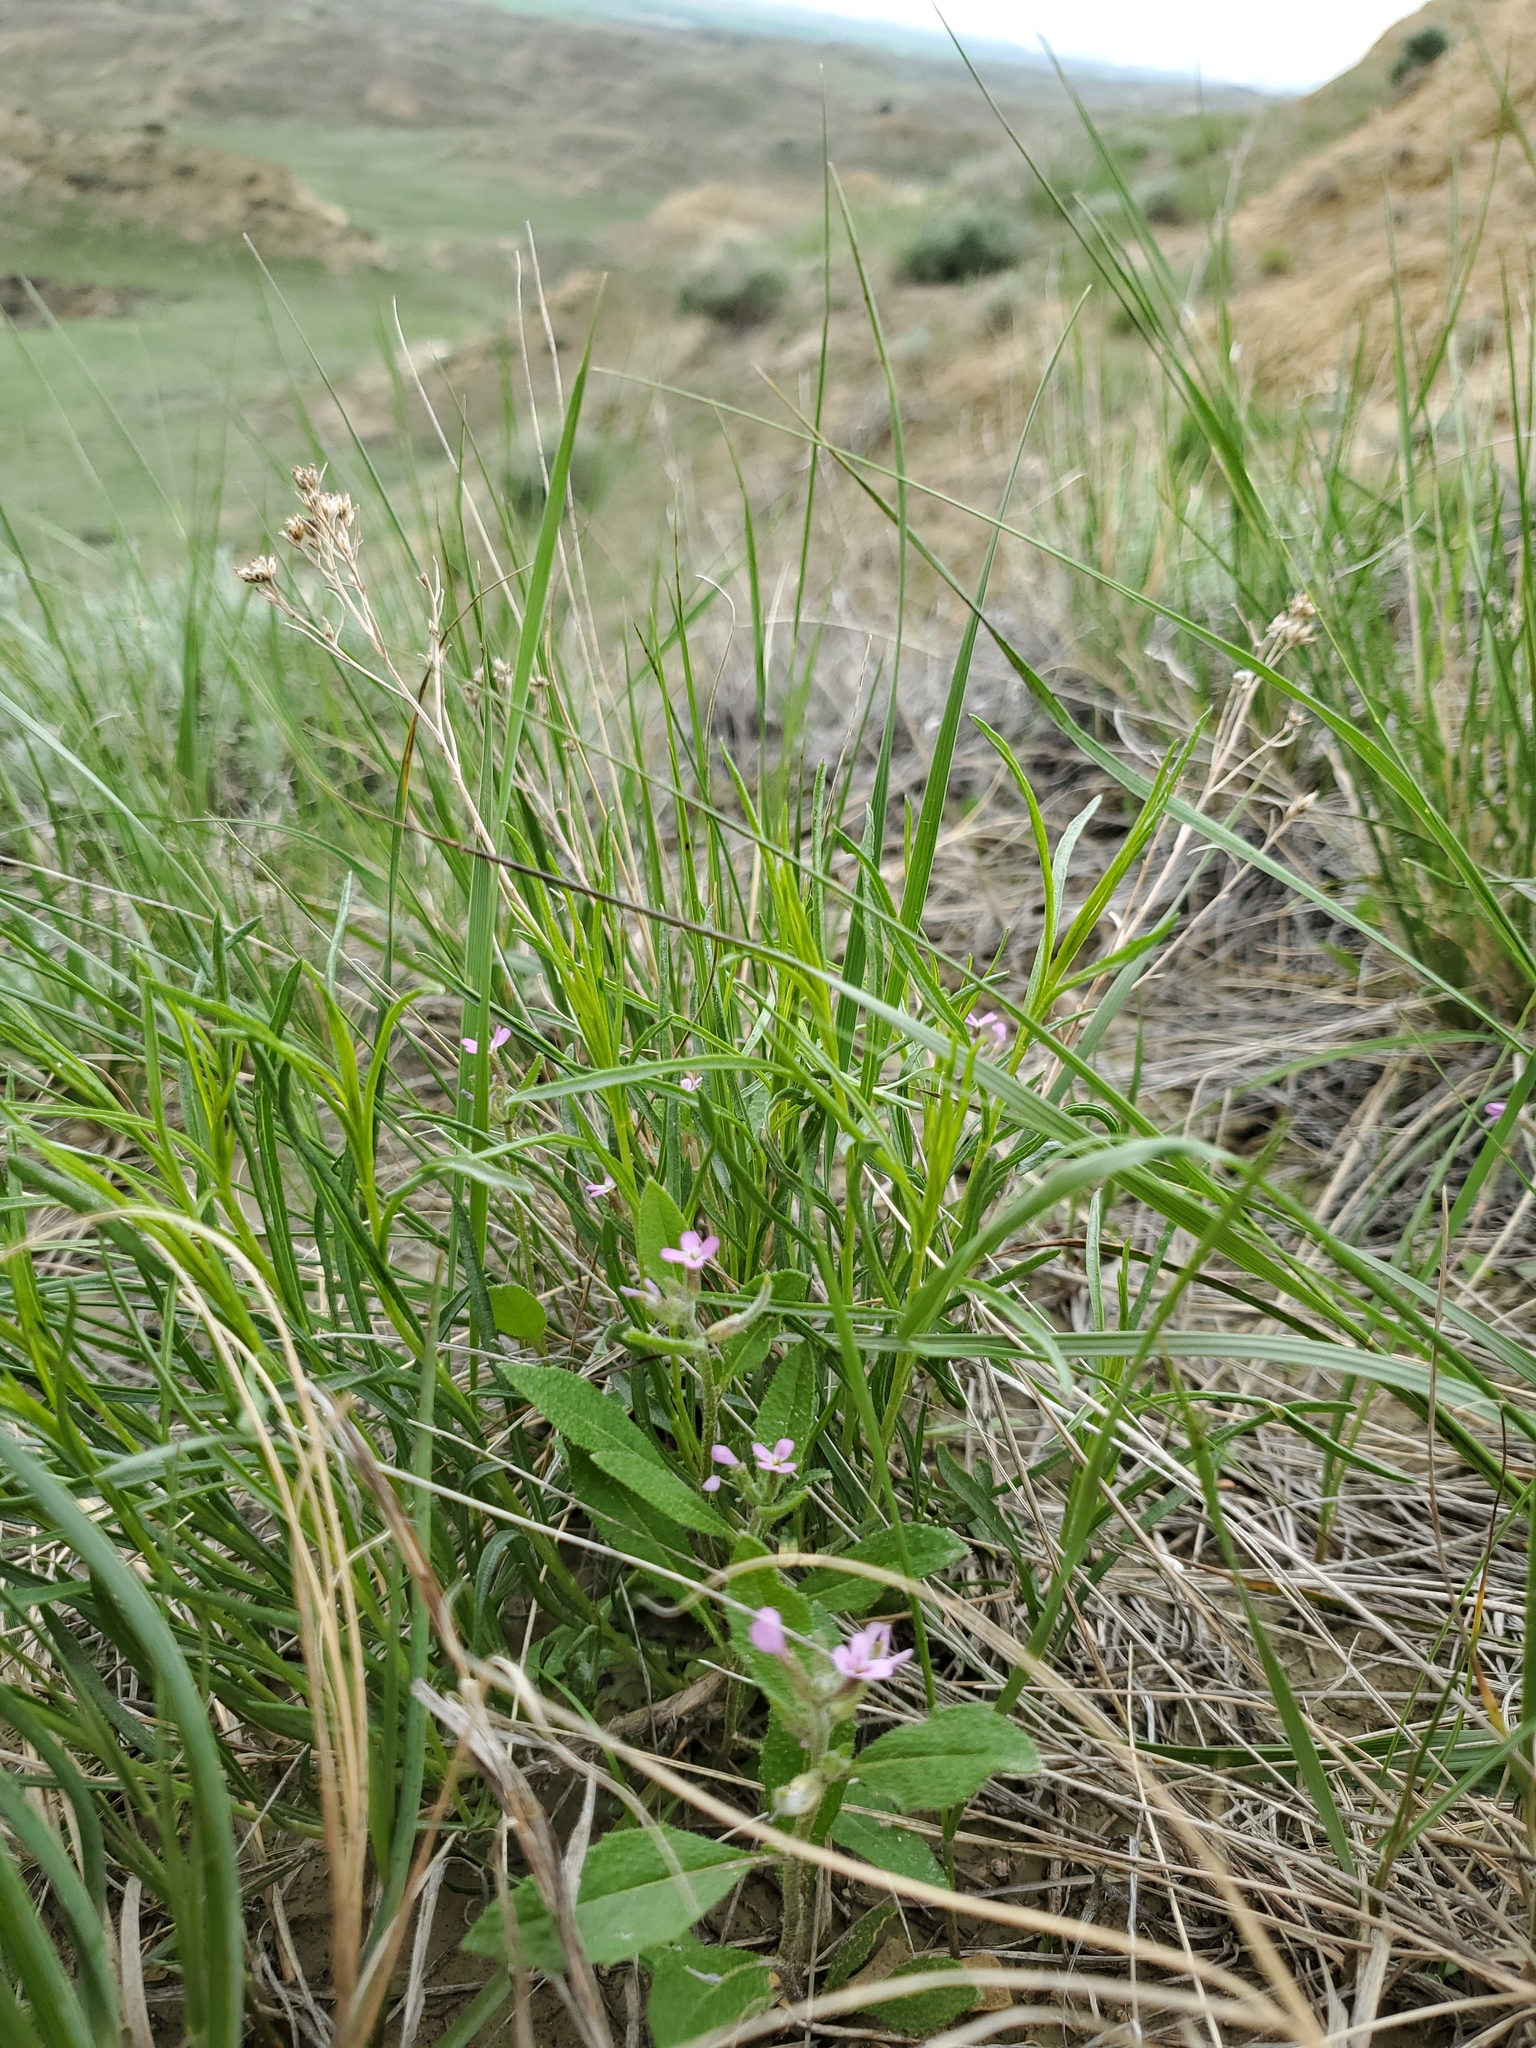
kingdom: Plantae
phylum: Tracheophyta
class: Magnoliopsida
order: Brassicales
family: Brassicaceae
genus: Strigosella
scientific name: Strigosella africana
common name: African mustard
